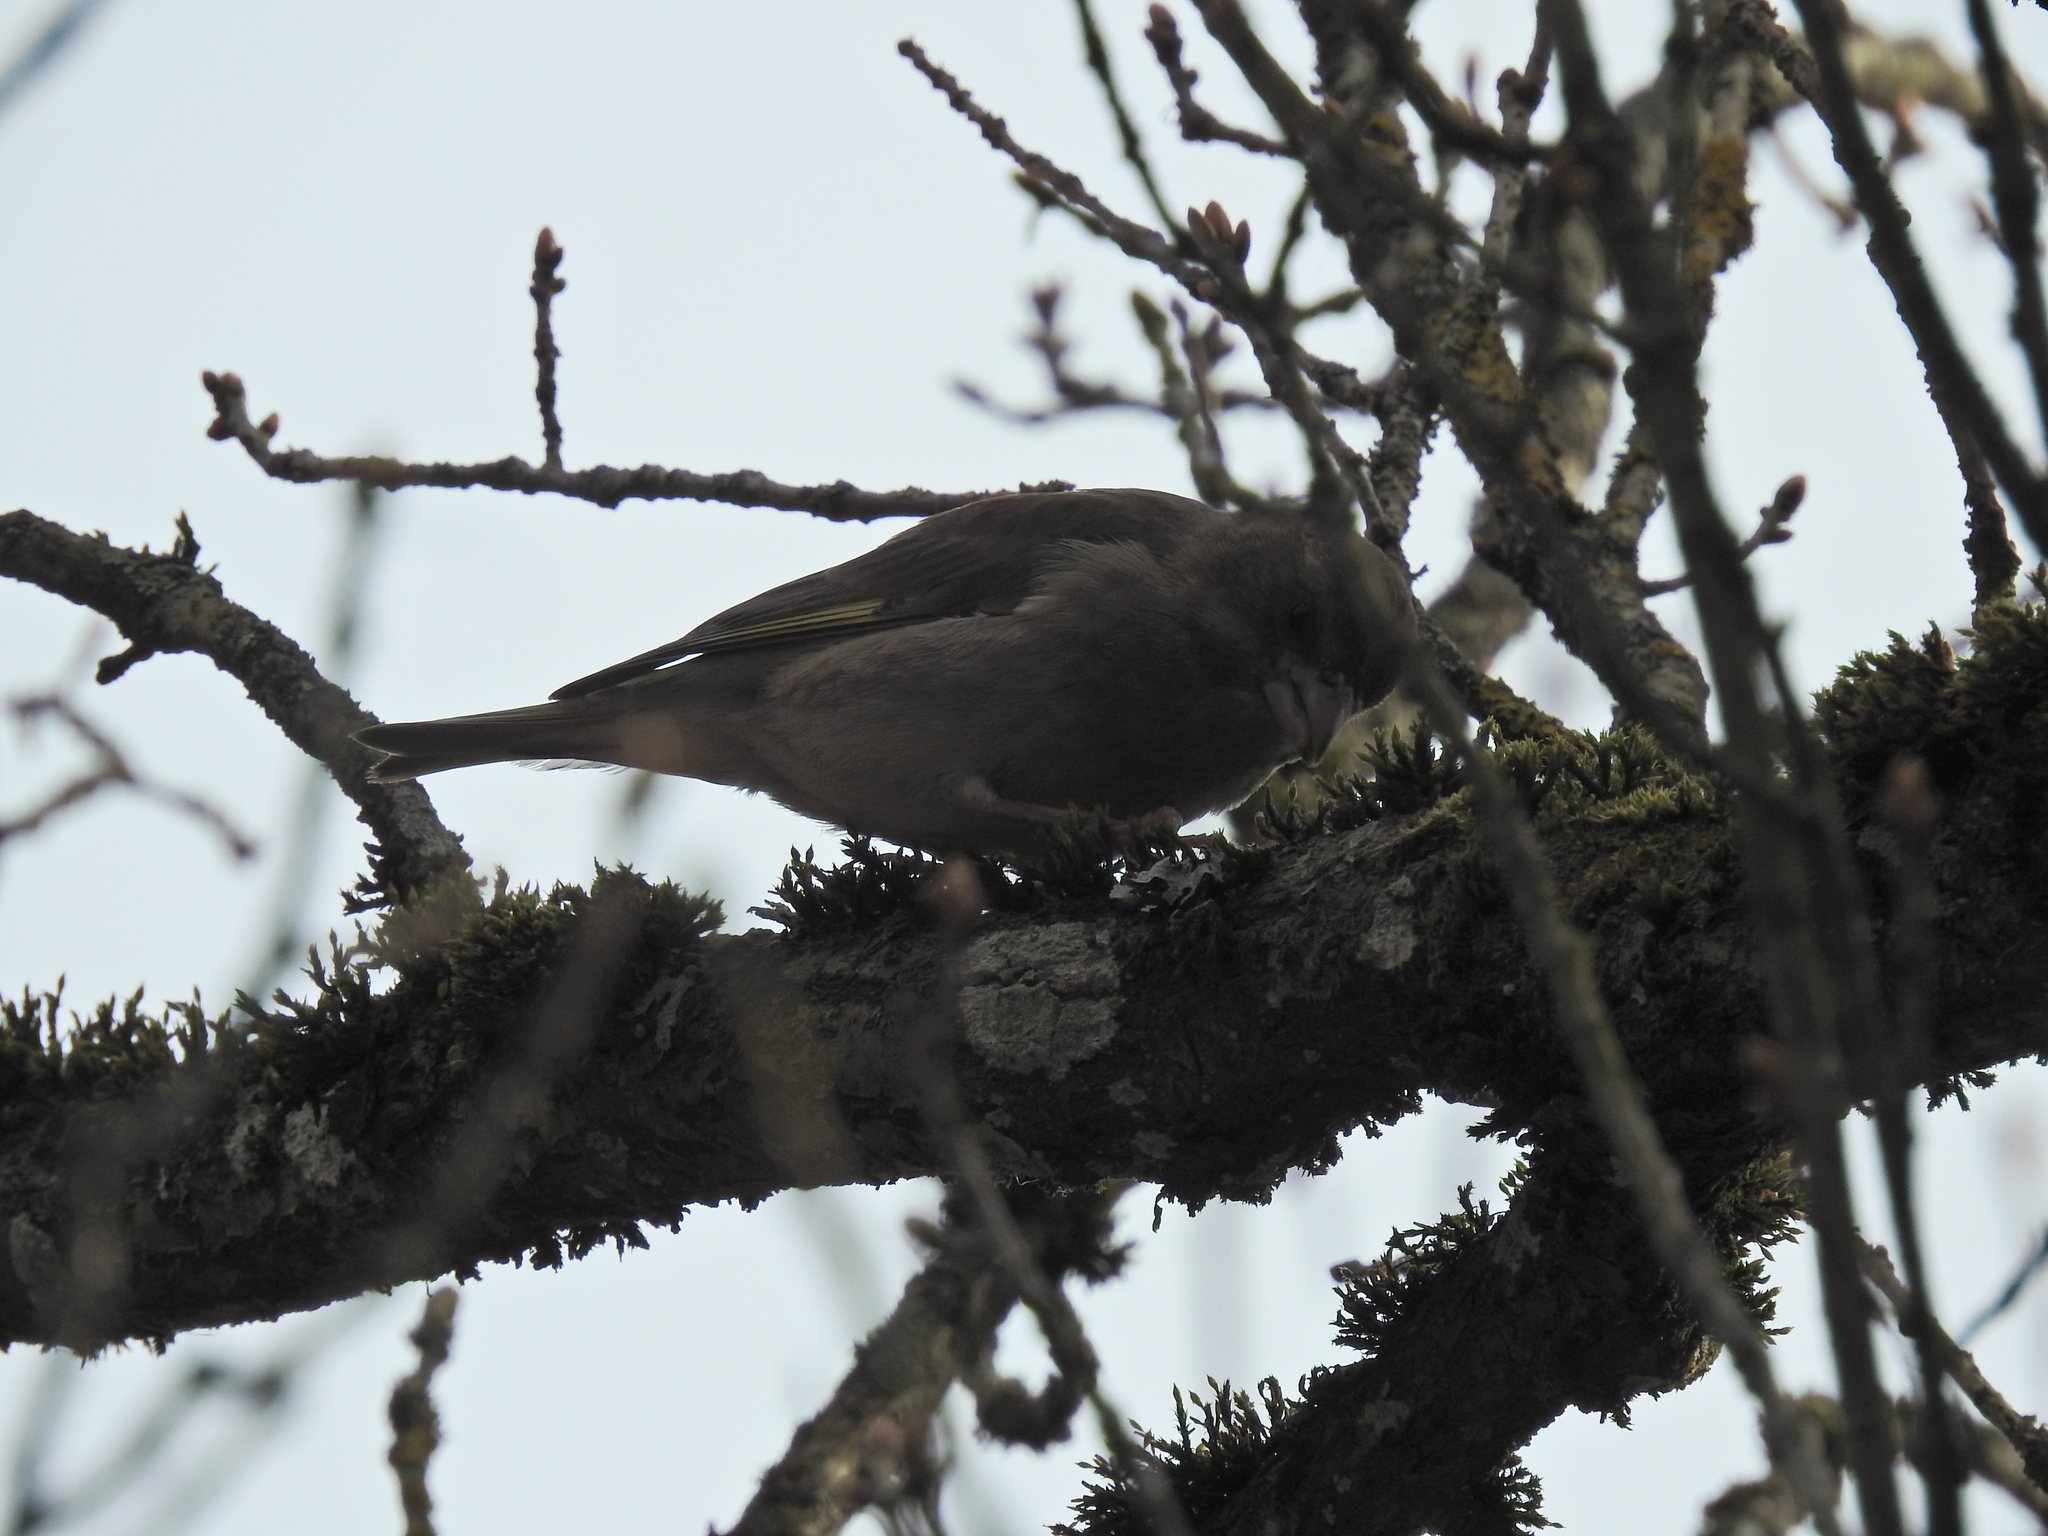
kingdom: Plantae
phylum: Tracheophyta
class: Liliopsida
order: Poales
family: Poaceae
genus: Chloris
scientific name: Chloris chloris
